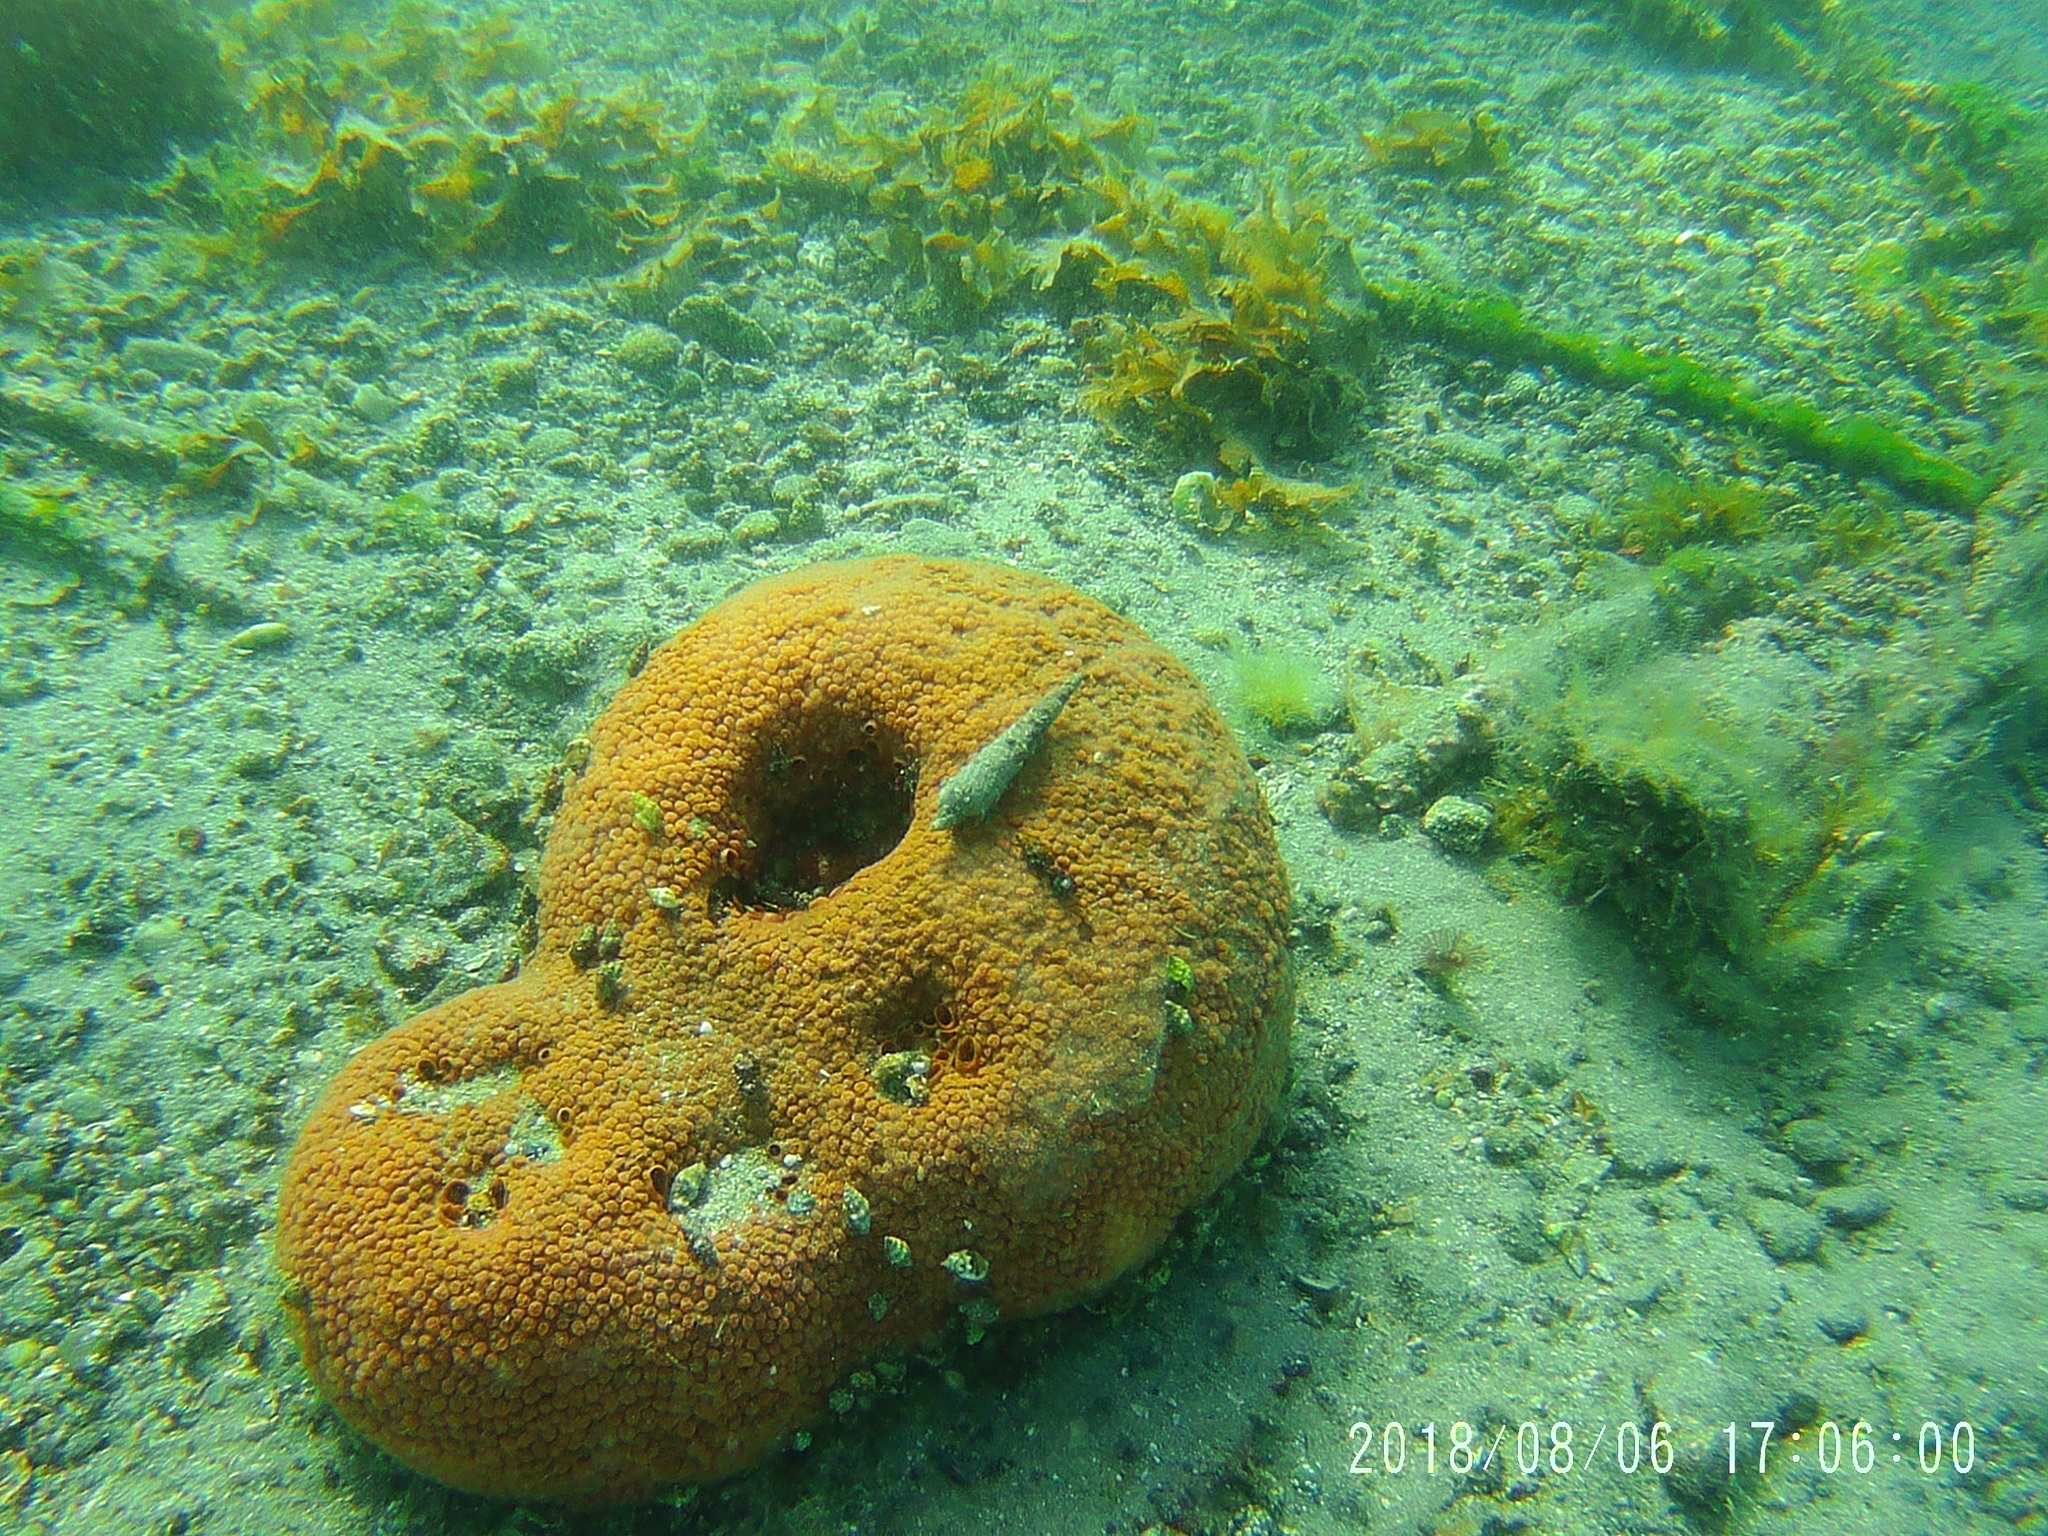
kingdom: Animalia
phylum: Porifera
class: Demospongiae
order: Clionaida
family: Clionaidae
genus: Cliona
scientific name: Cliona californiana
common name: California boring horny sponge
